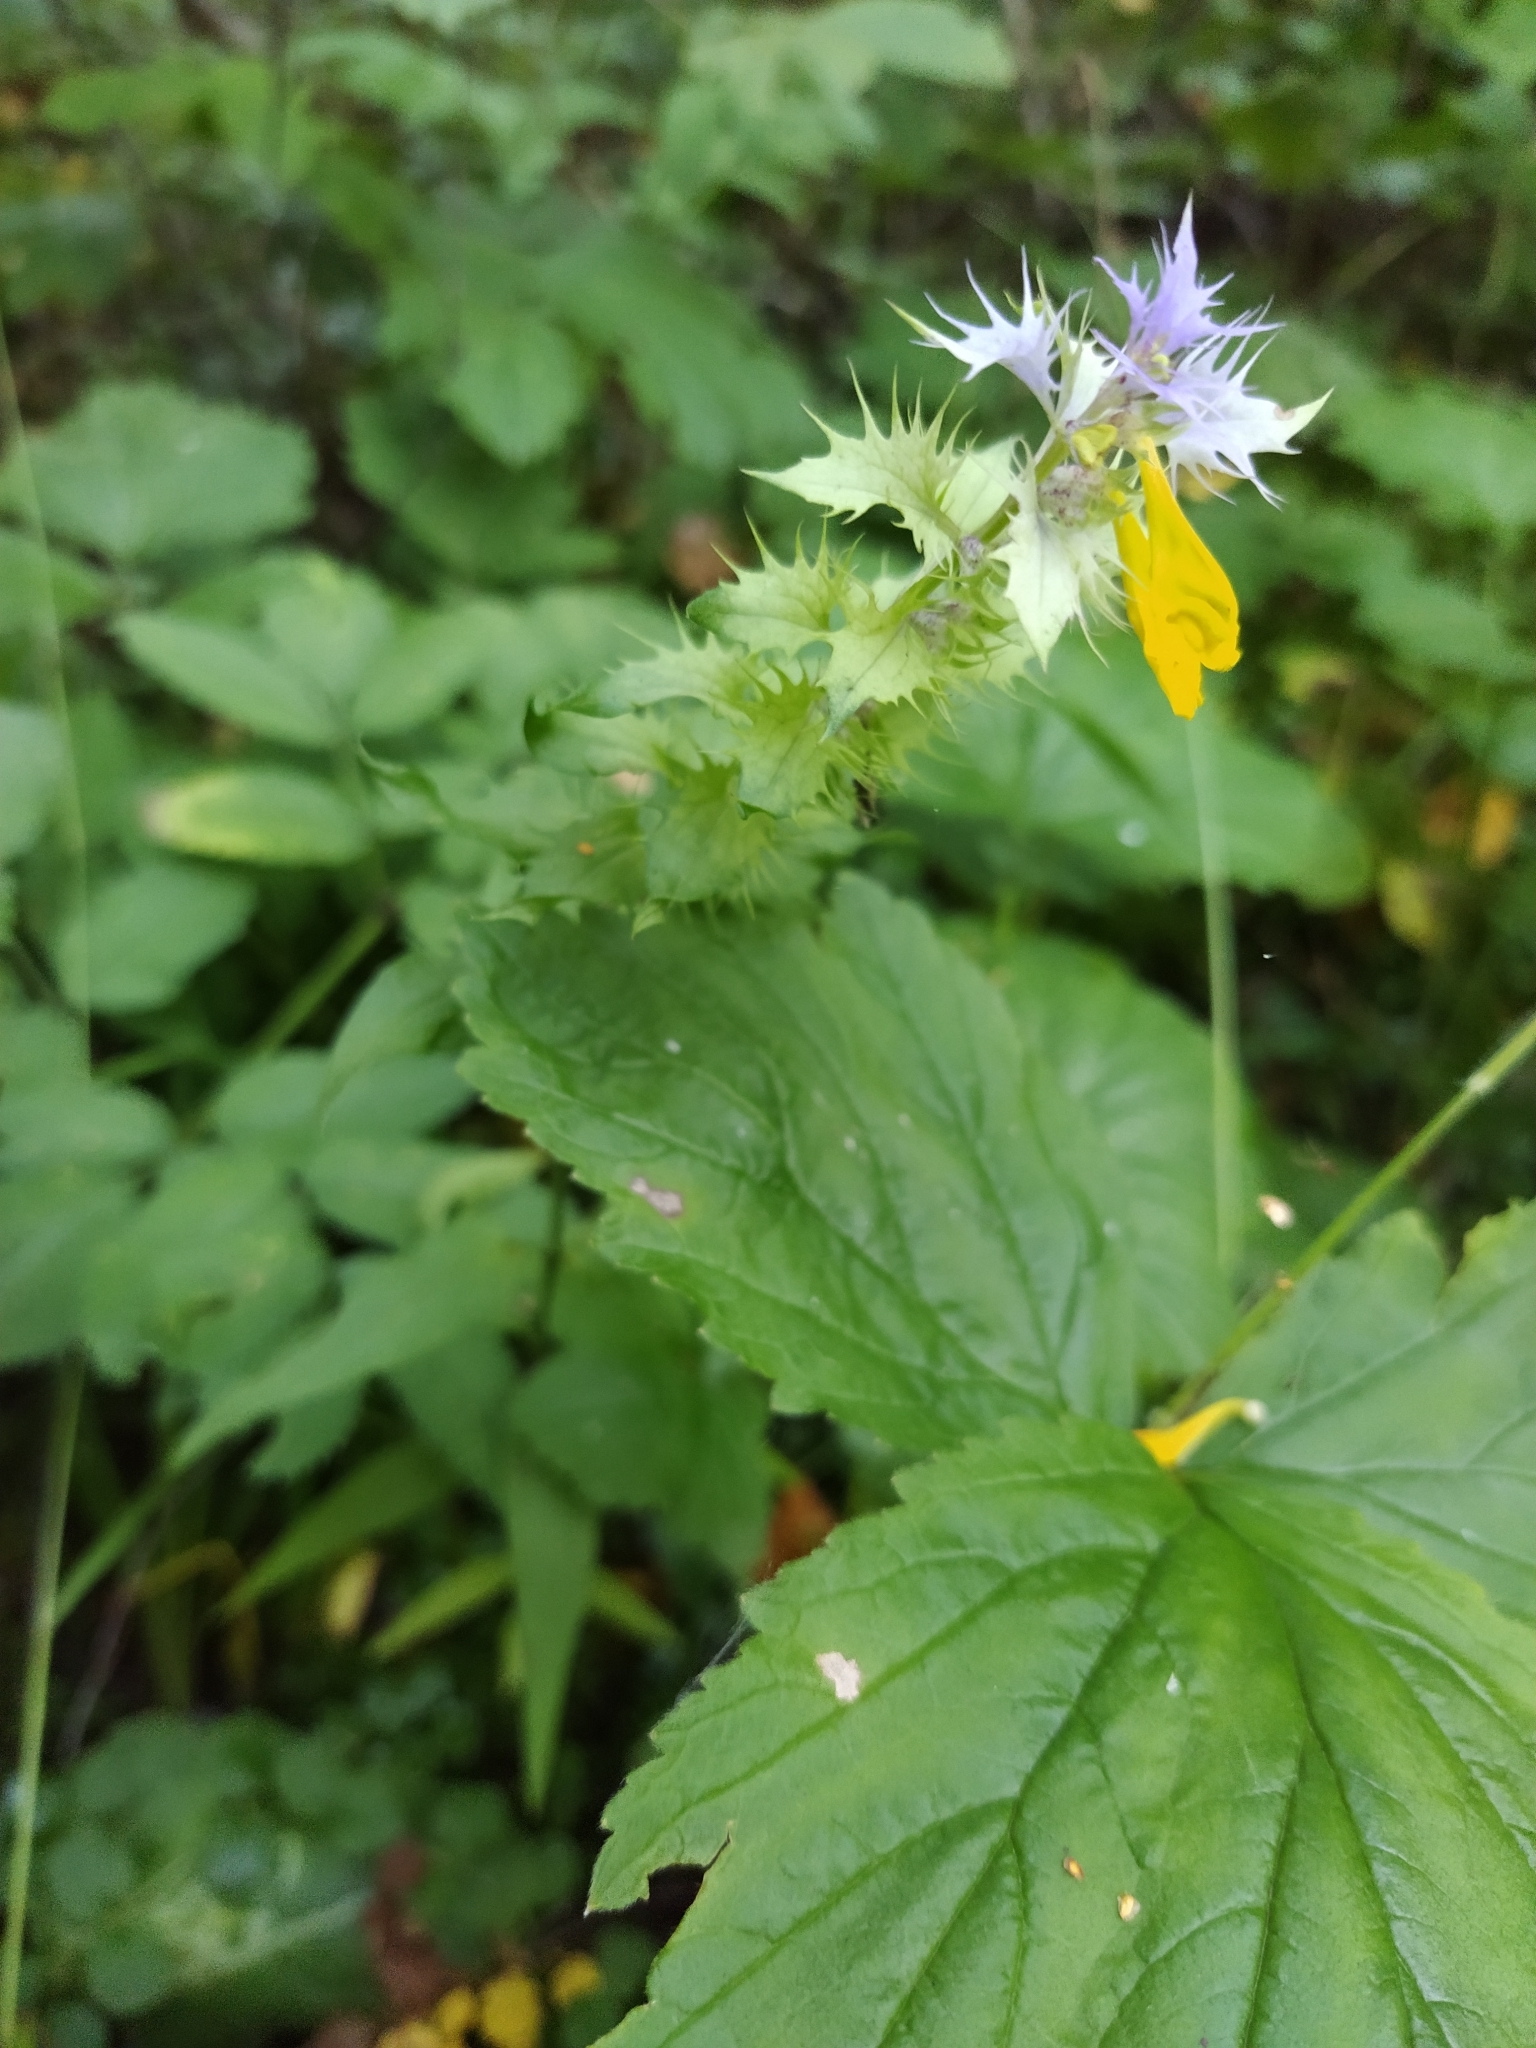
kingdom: Plantae
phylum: Tracheophyta
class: Magnoliopsida
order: Lamiales
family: Orobanchaceae
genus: Melampyrum
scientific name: Melampyrum nemorosum
